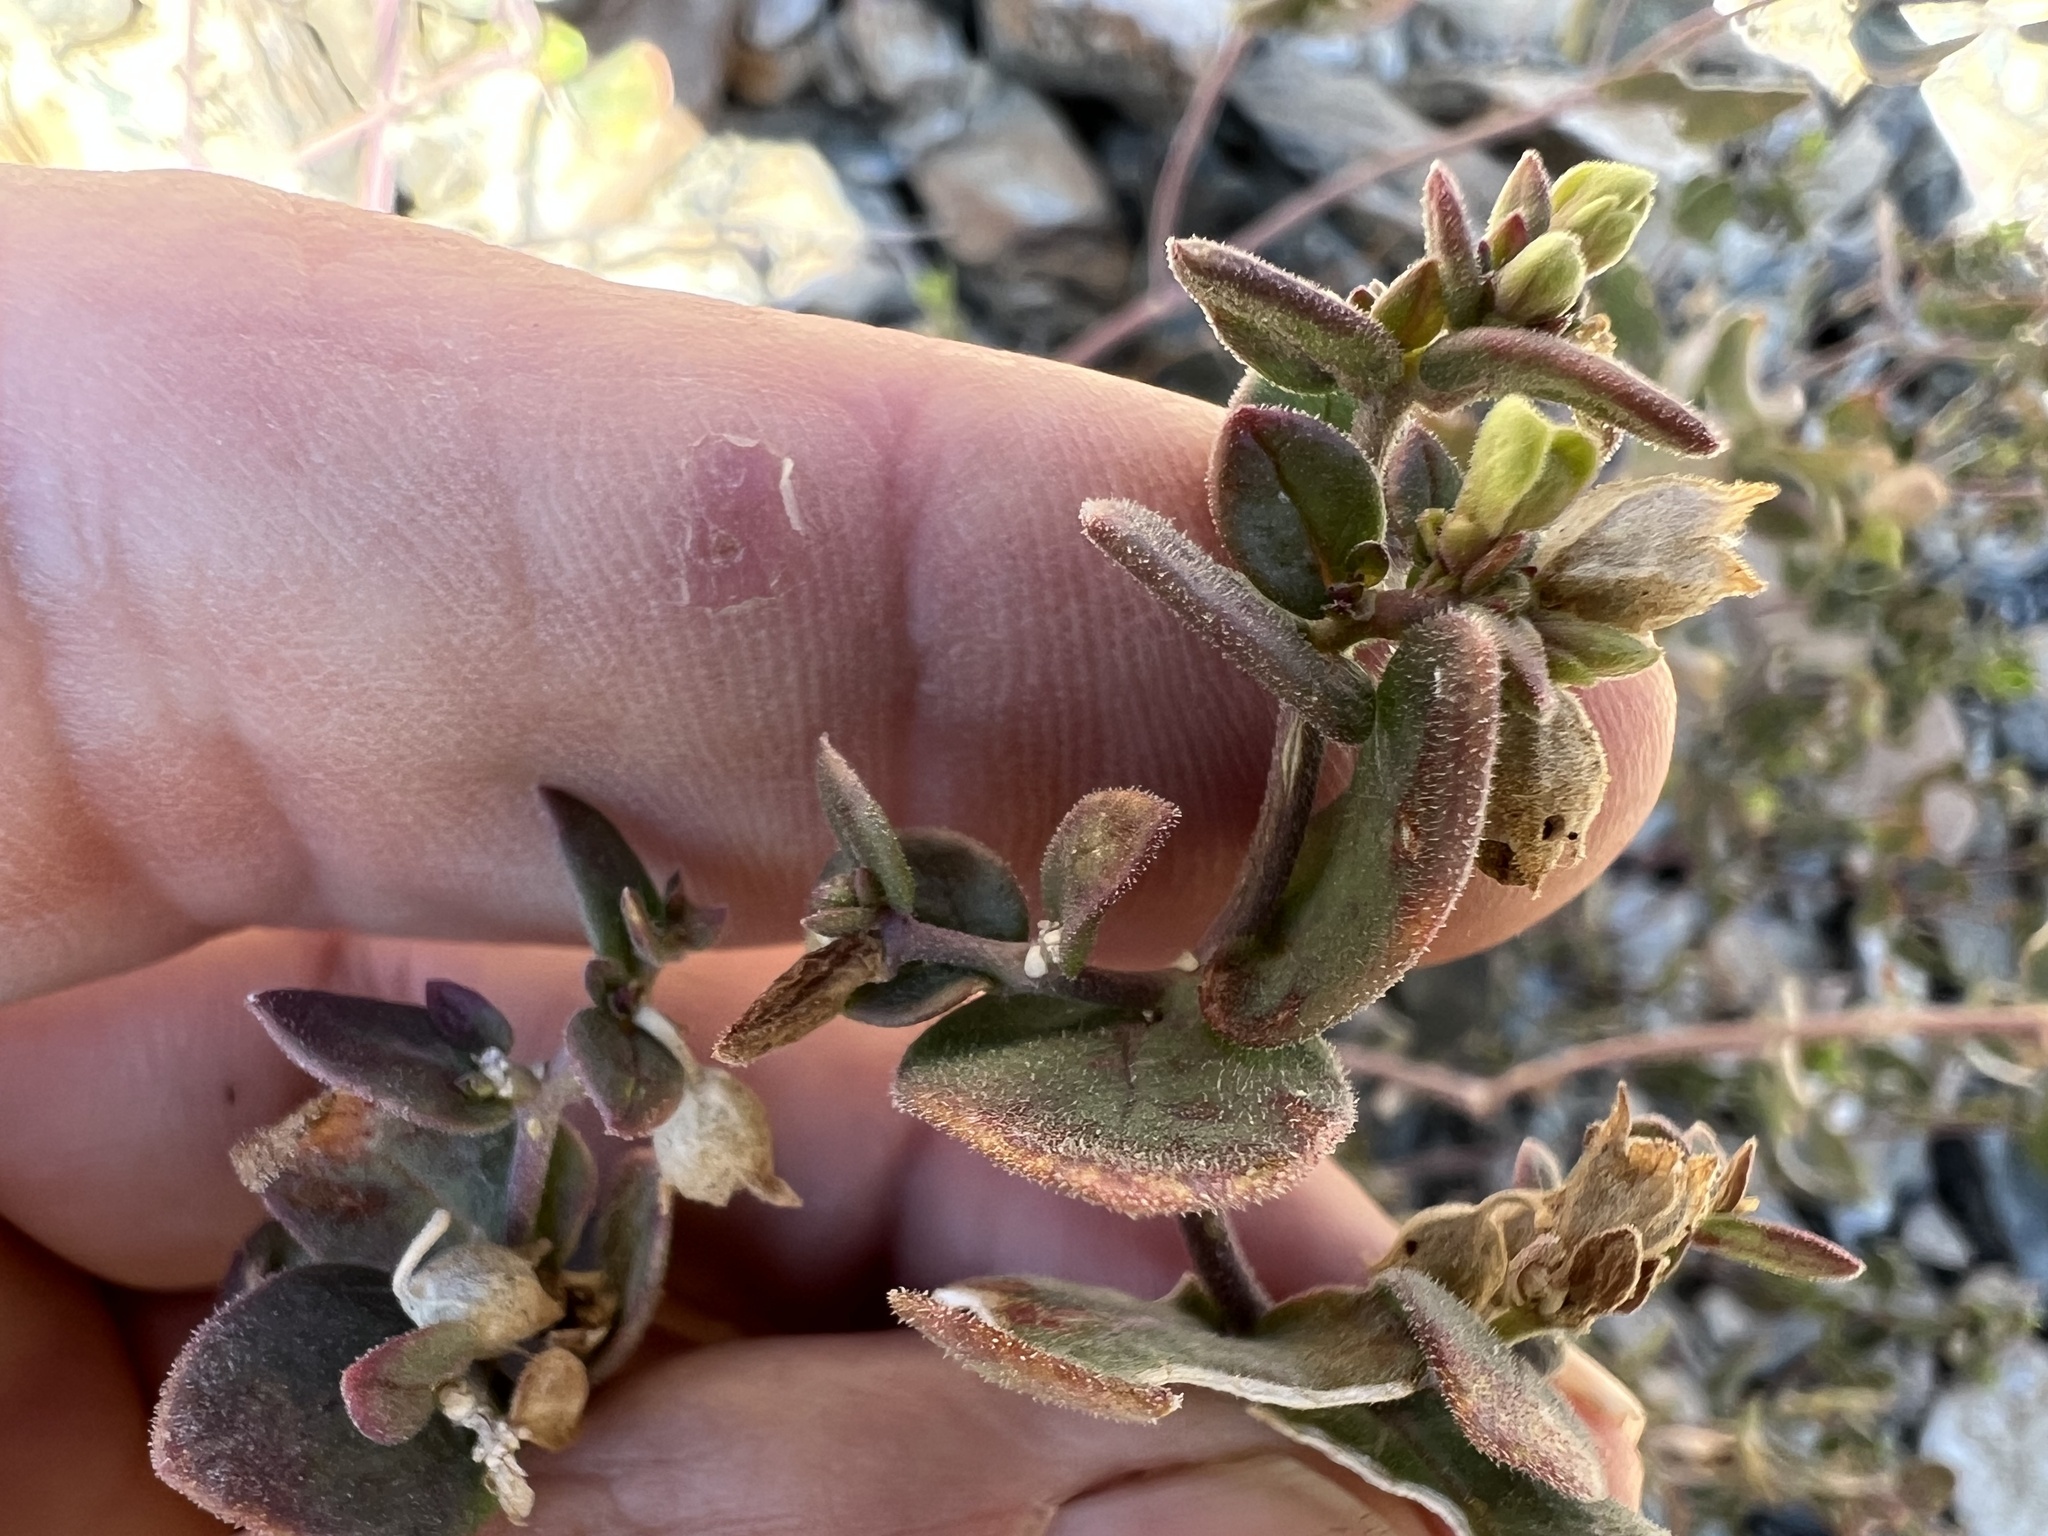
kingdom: Plantae
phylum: Tracheophyta
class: Magnoliopsida
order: Ericales
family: Polemoniaceae
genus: Aliciella
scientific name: Aliciella latifolia
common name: Broad-leaf gilia
